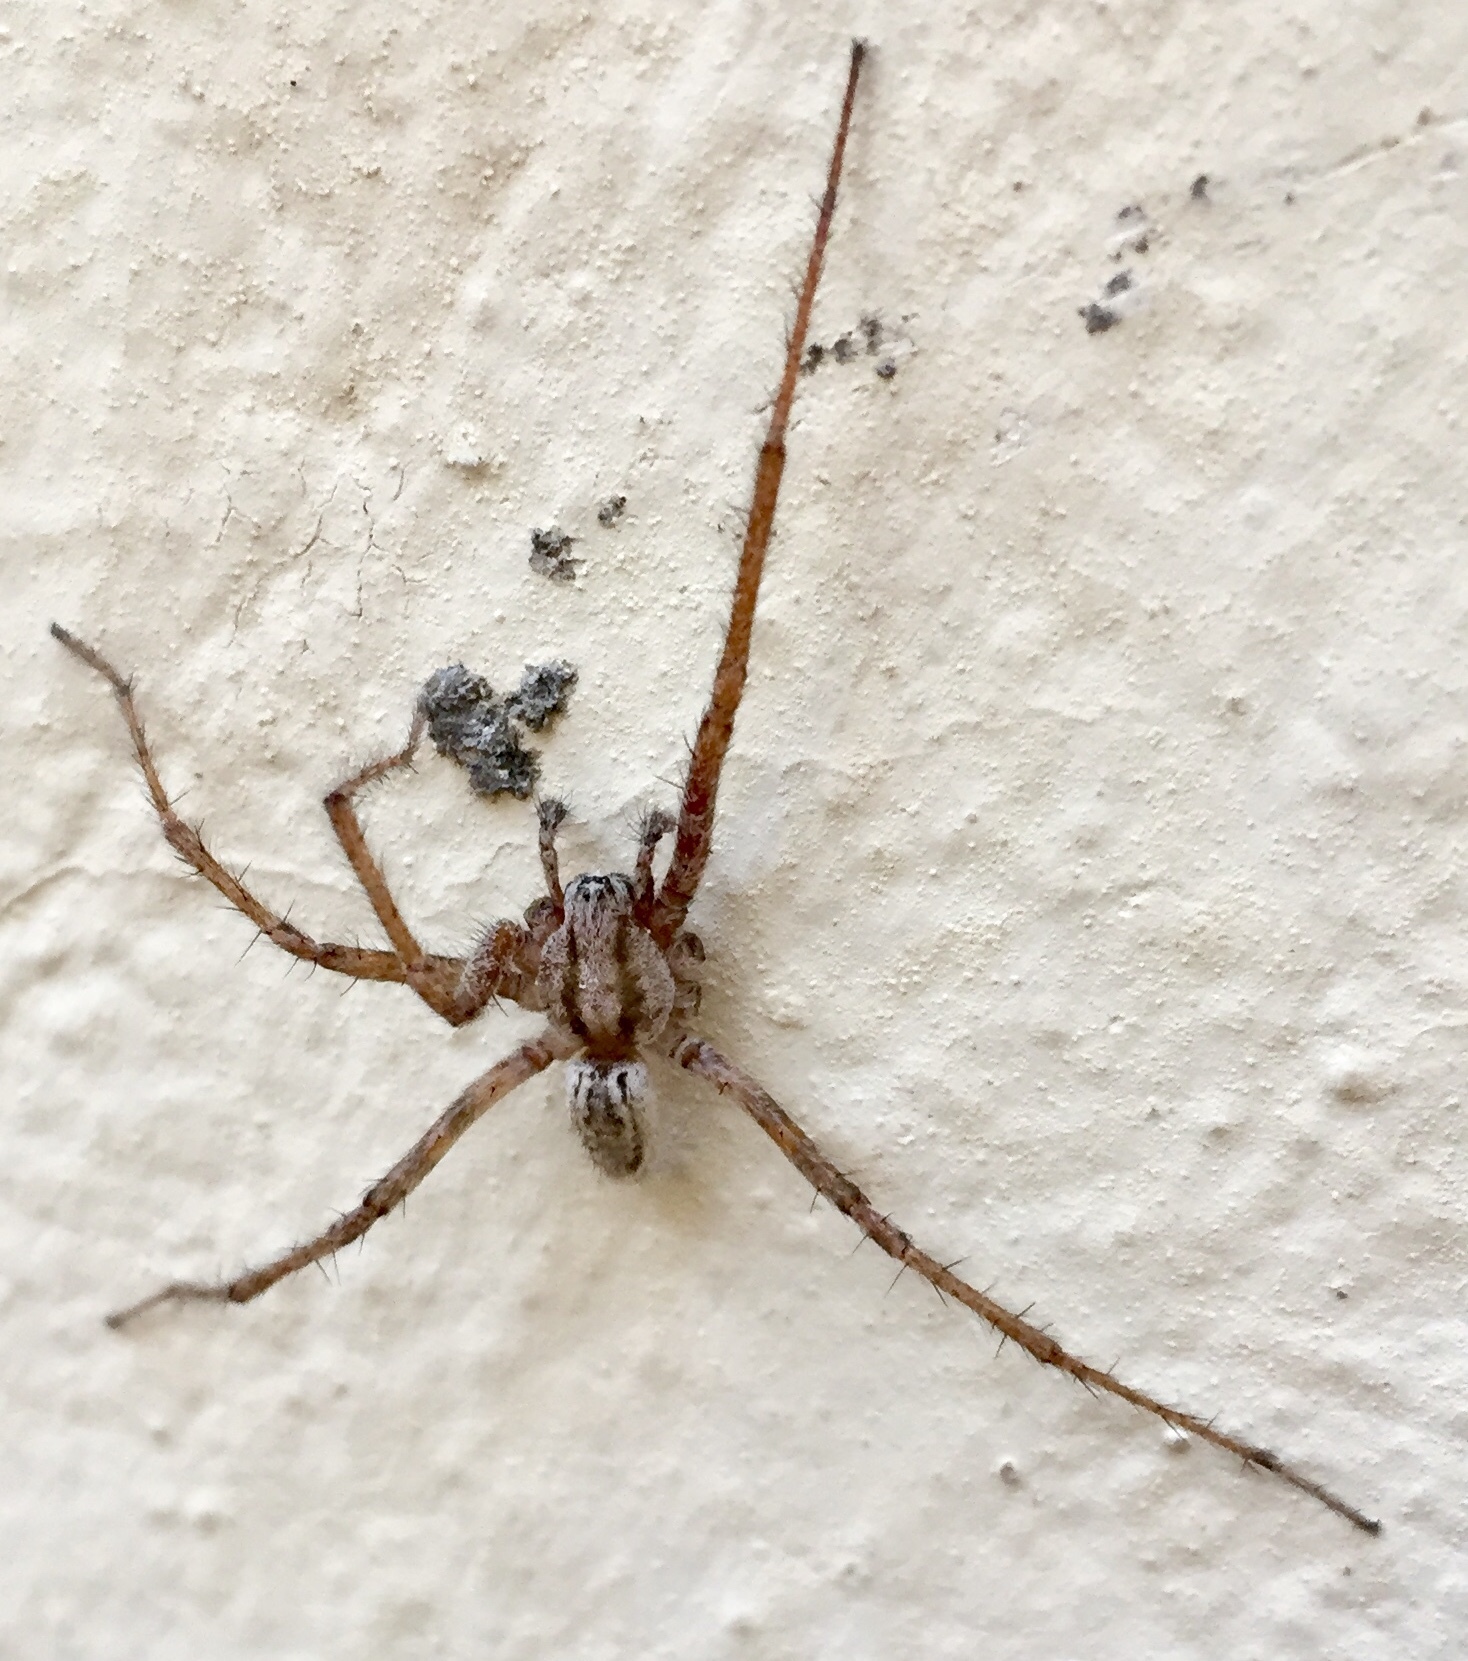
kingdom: Animalia
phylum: Arthropoda
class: Arachnida
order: Araneae
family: Agelenidae
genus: Tegenaria
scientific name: Tegenaria domestica
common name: Barn funnel weaver
